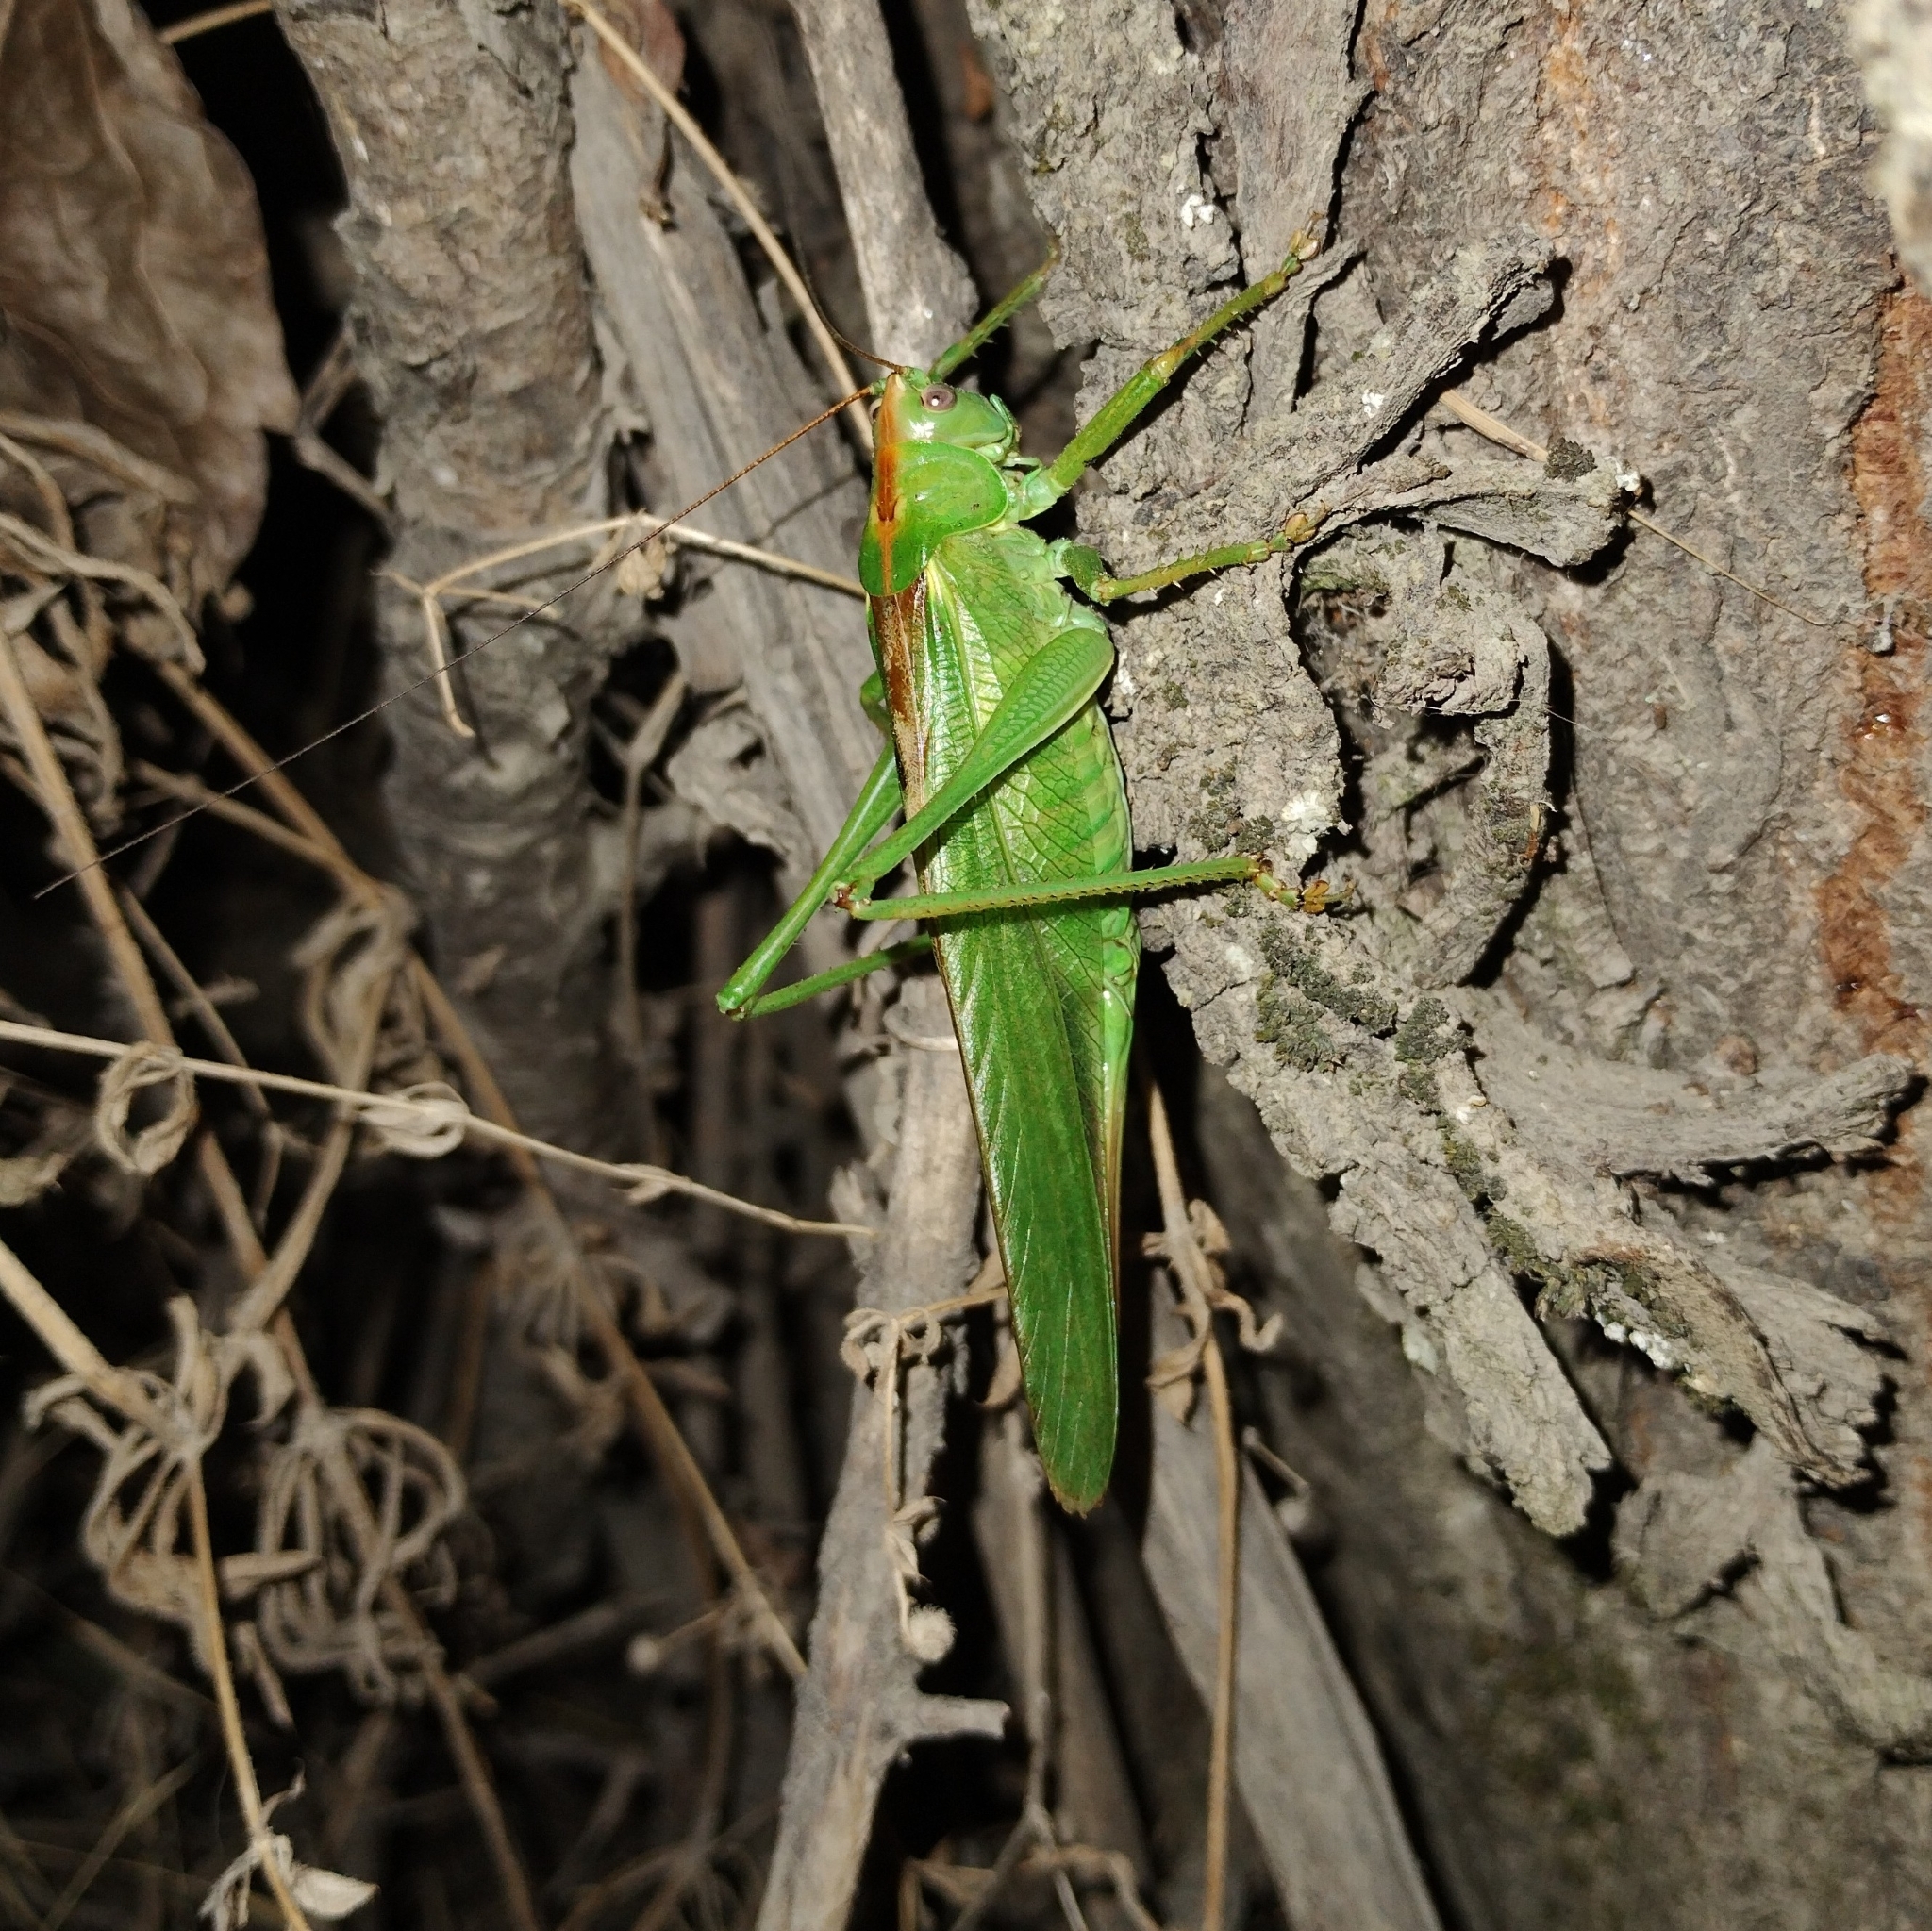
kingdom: Animalia
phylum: Arthropoda
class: Insecta
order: Orthoptera
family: Tettigoniidae
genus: Tettigonia
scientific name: Tettigonia viridissima
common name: Great green bush-cricket
